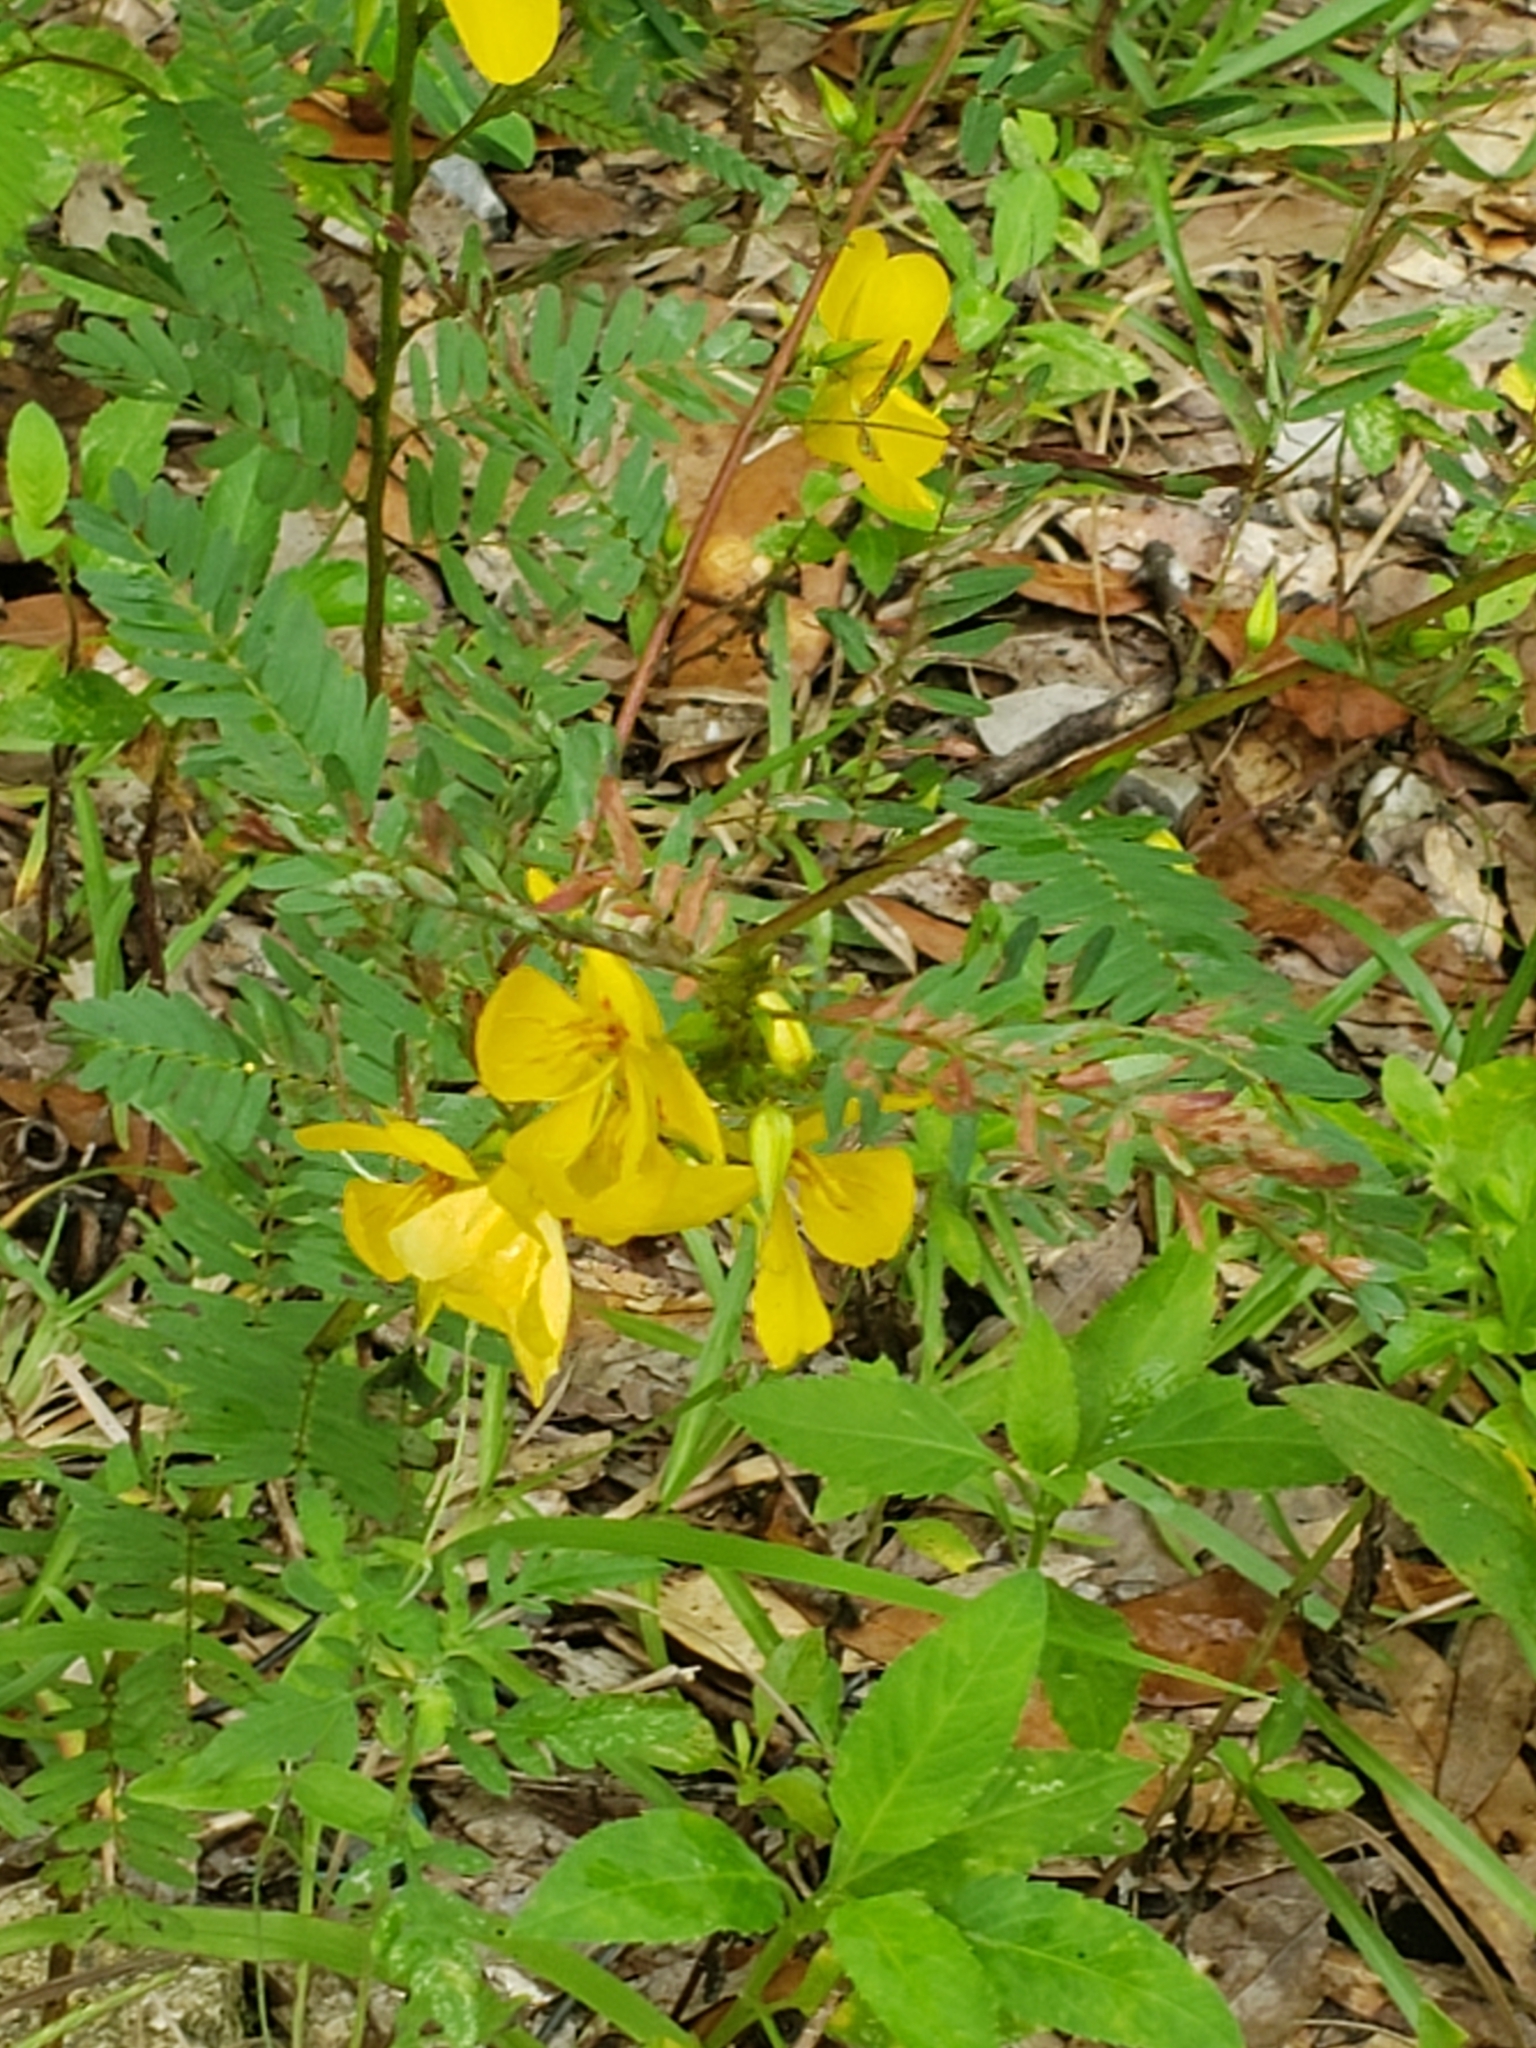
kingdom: Plantae
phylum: Tracheophyta
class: Magnoliopsida
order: Fabales
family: Fabaceae
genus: Chamaecrista
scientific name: Chamaecrista fasciculata
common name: Golden cassia
